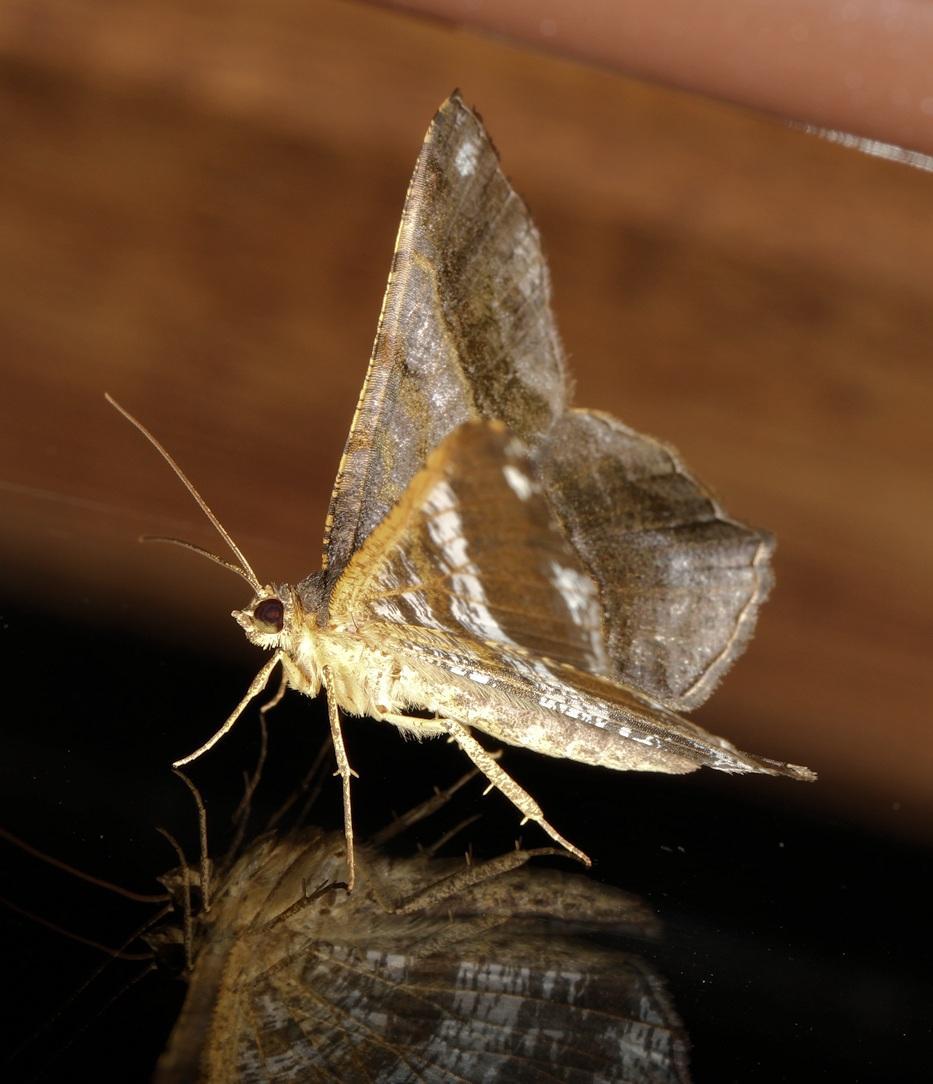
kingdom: Animalia
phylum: Arthropoda
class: Insecta
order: Lepidoptera
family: Geometridae
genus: Chiasmia
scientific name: Chiasmia feraliata
